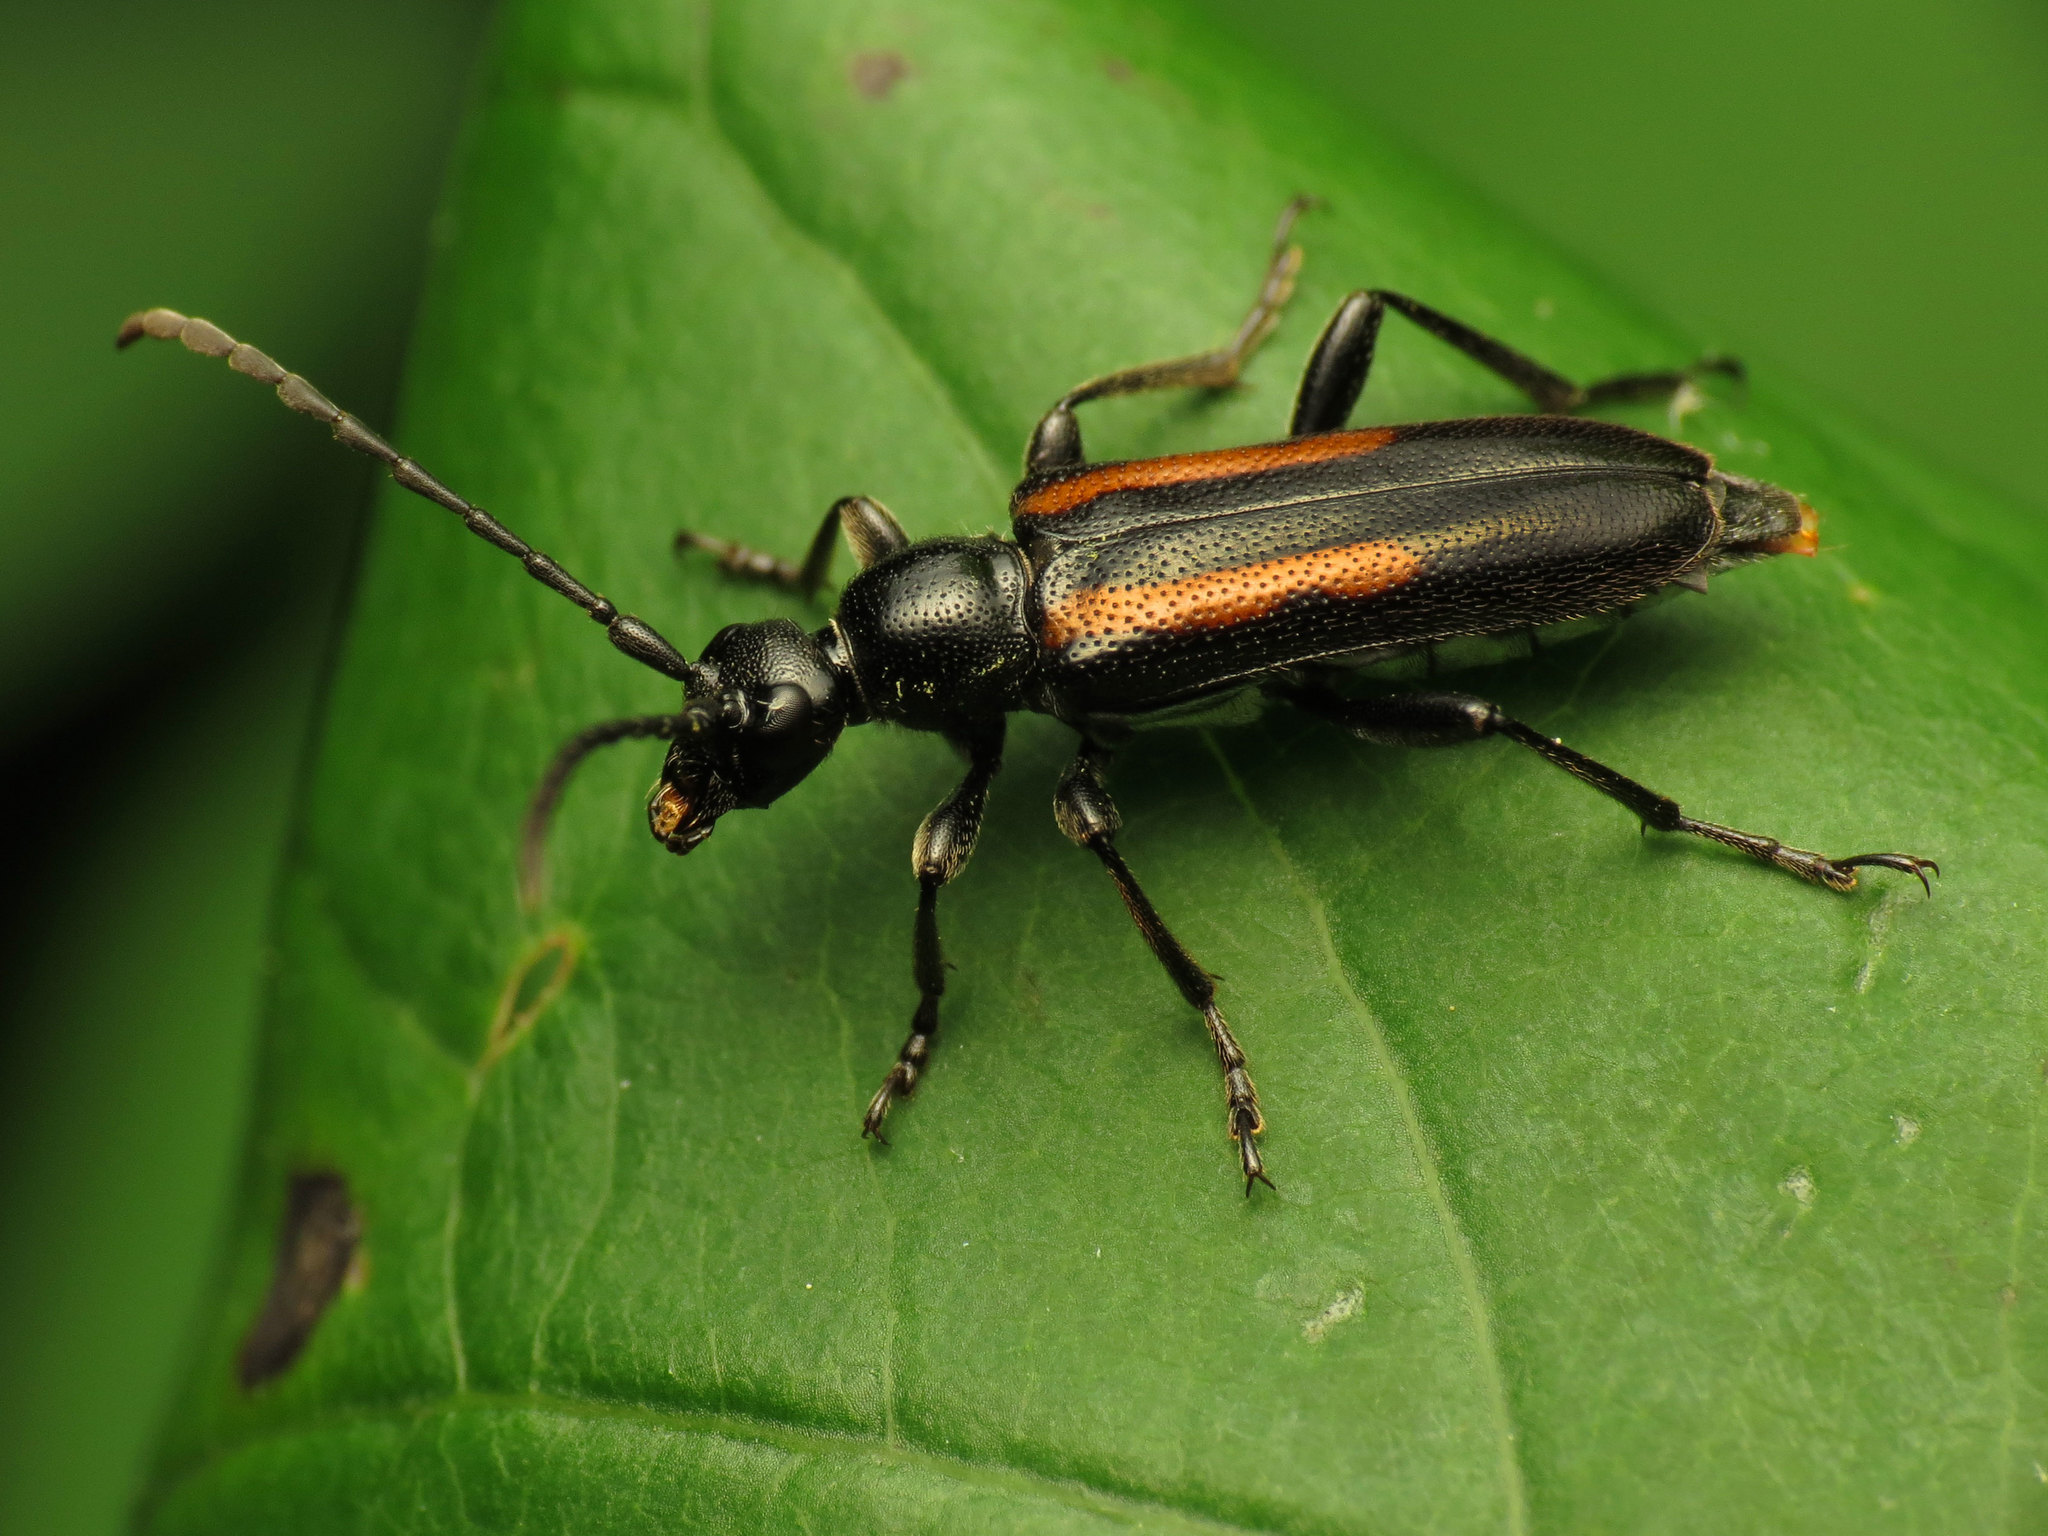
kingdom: Animalia
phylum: Arthropoda
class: Insecta
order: Coleoptera
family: Cerambycidae
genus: Strangalepta
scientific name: Strangalepta abbreviata
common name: Strangalepta flower longhorn beetle
